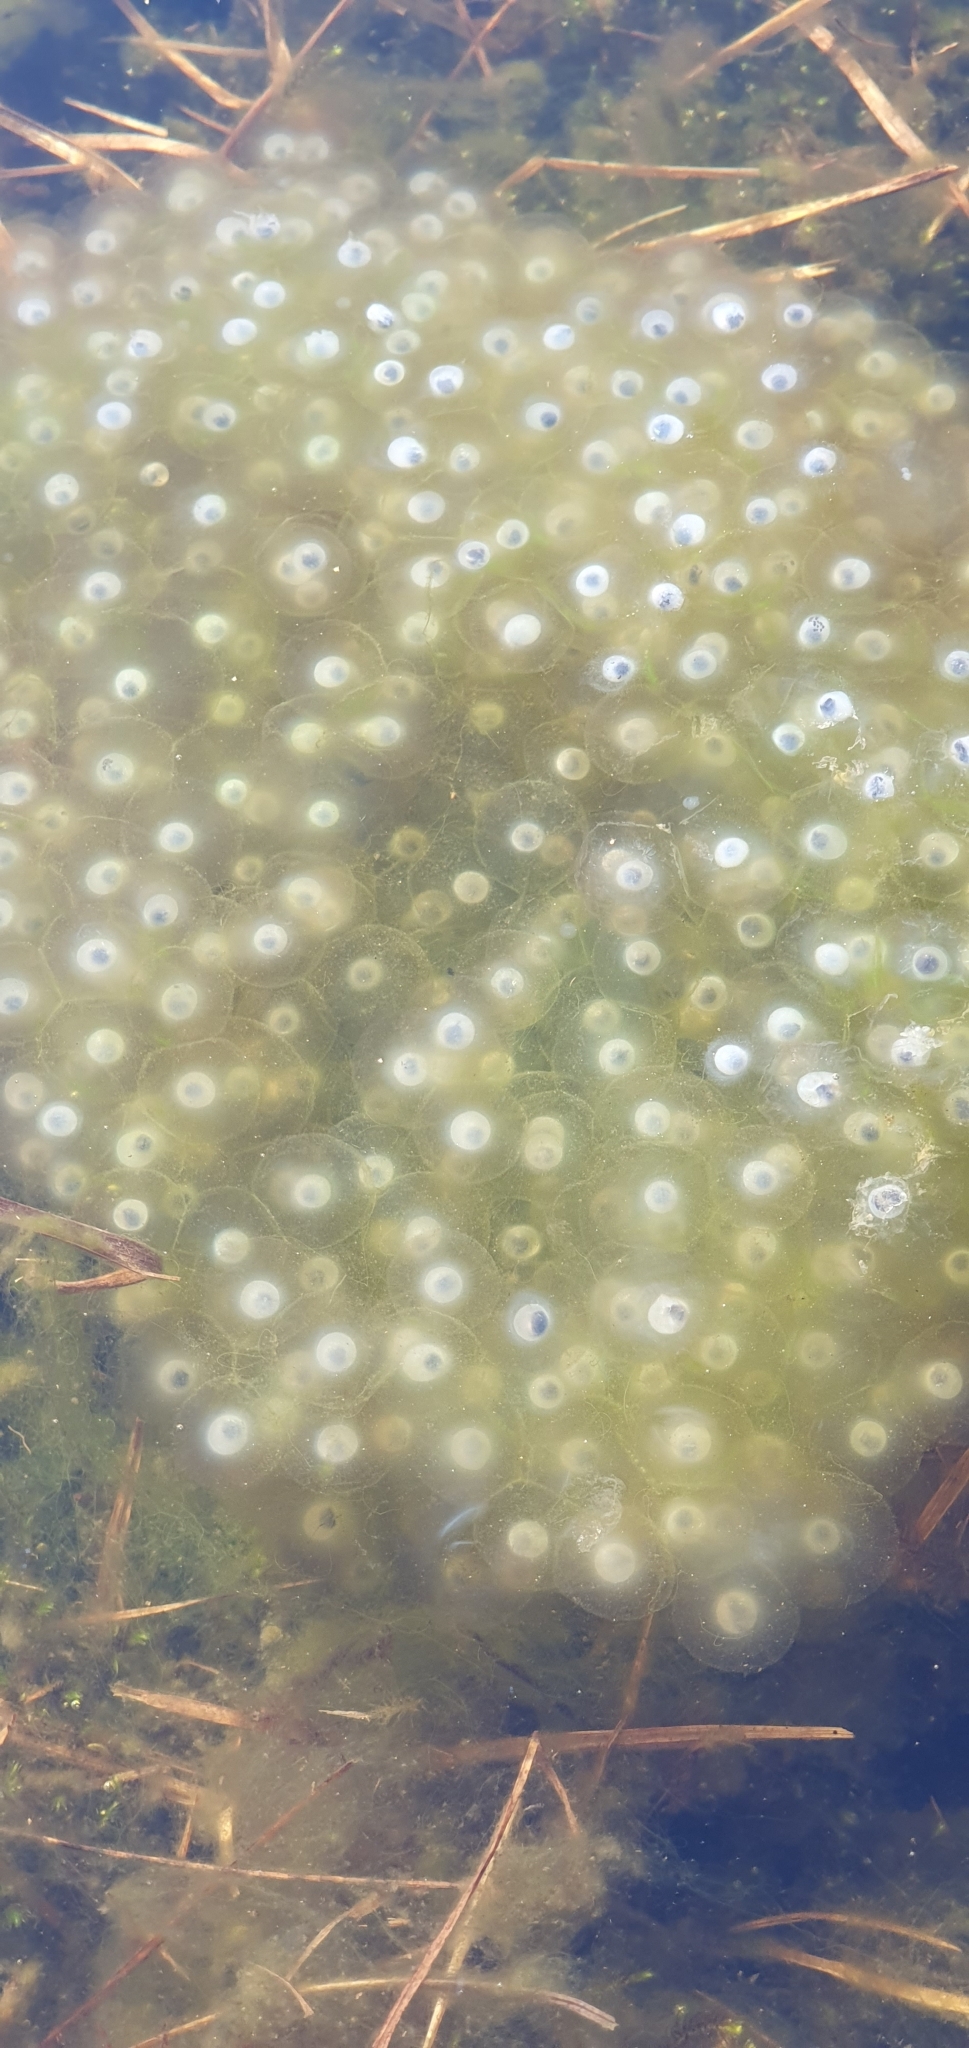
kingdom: Animalia
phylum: Chordata
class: Amphibia
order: Anura
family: Ranidae
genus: Rana
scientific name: Rana temporaria
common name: Common frog
